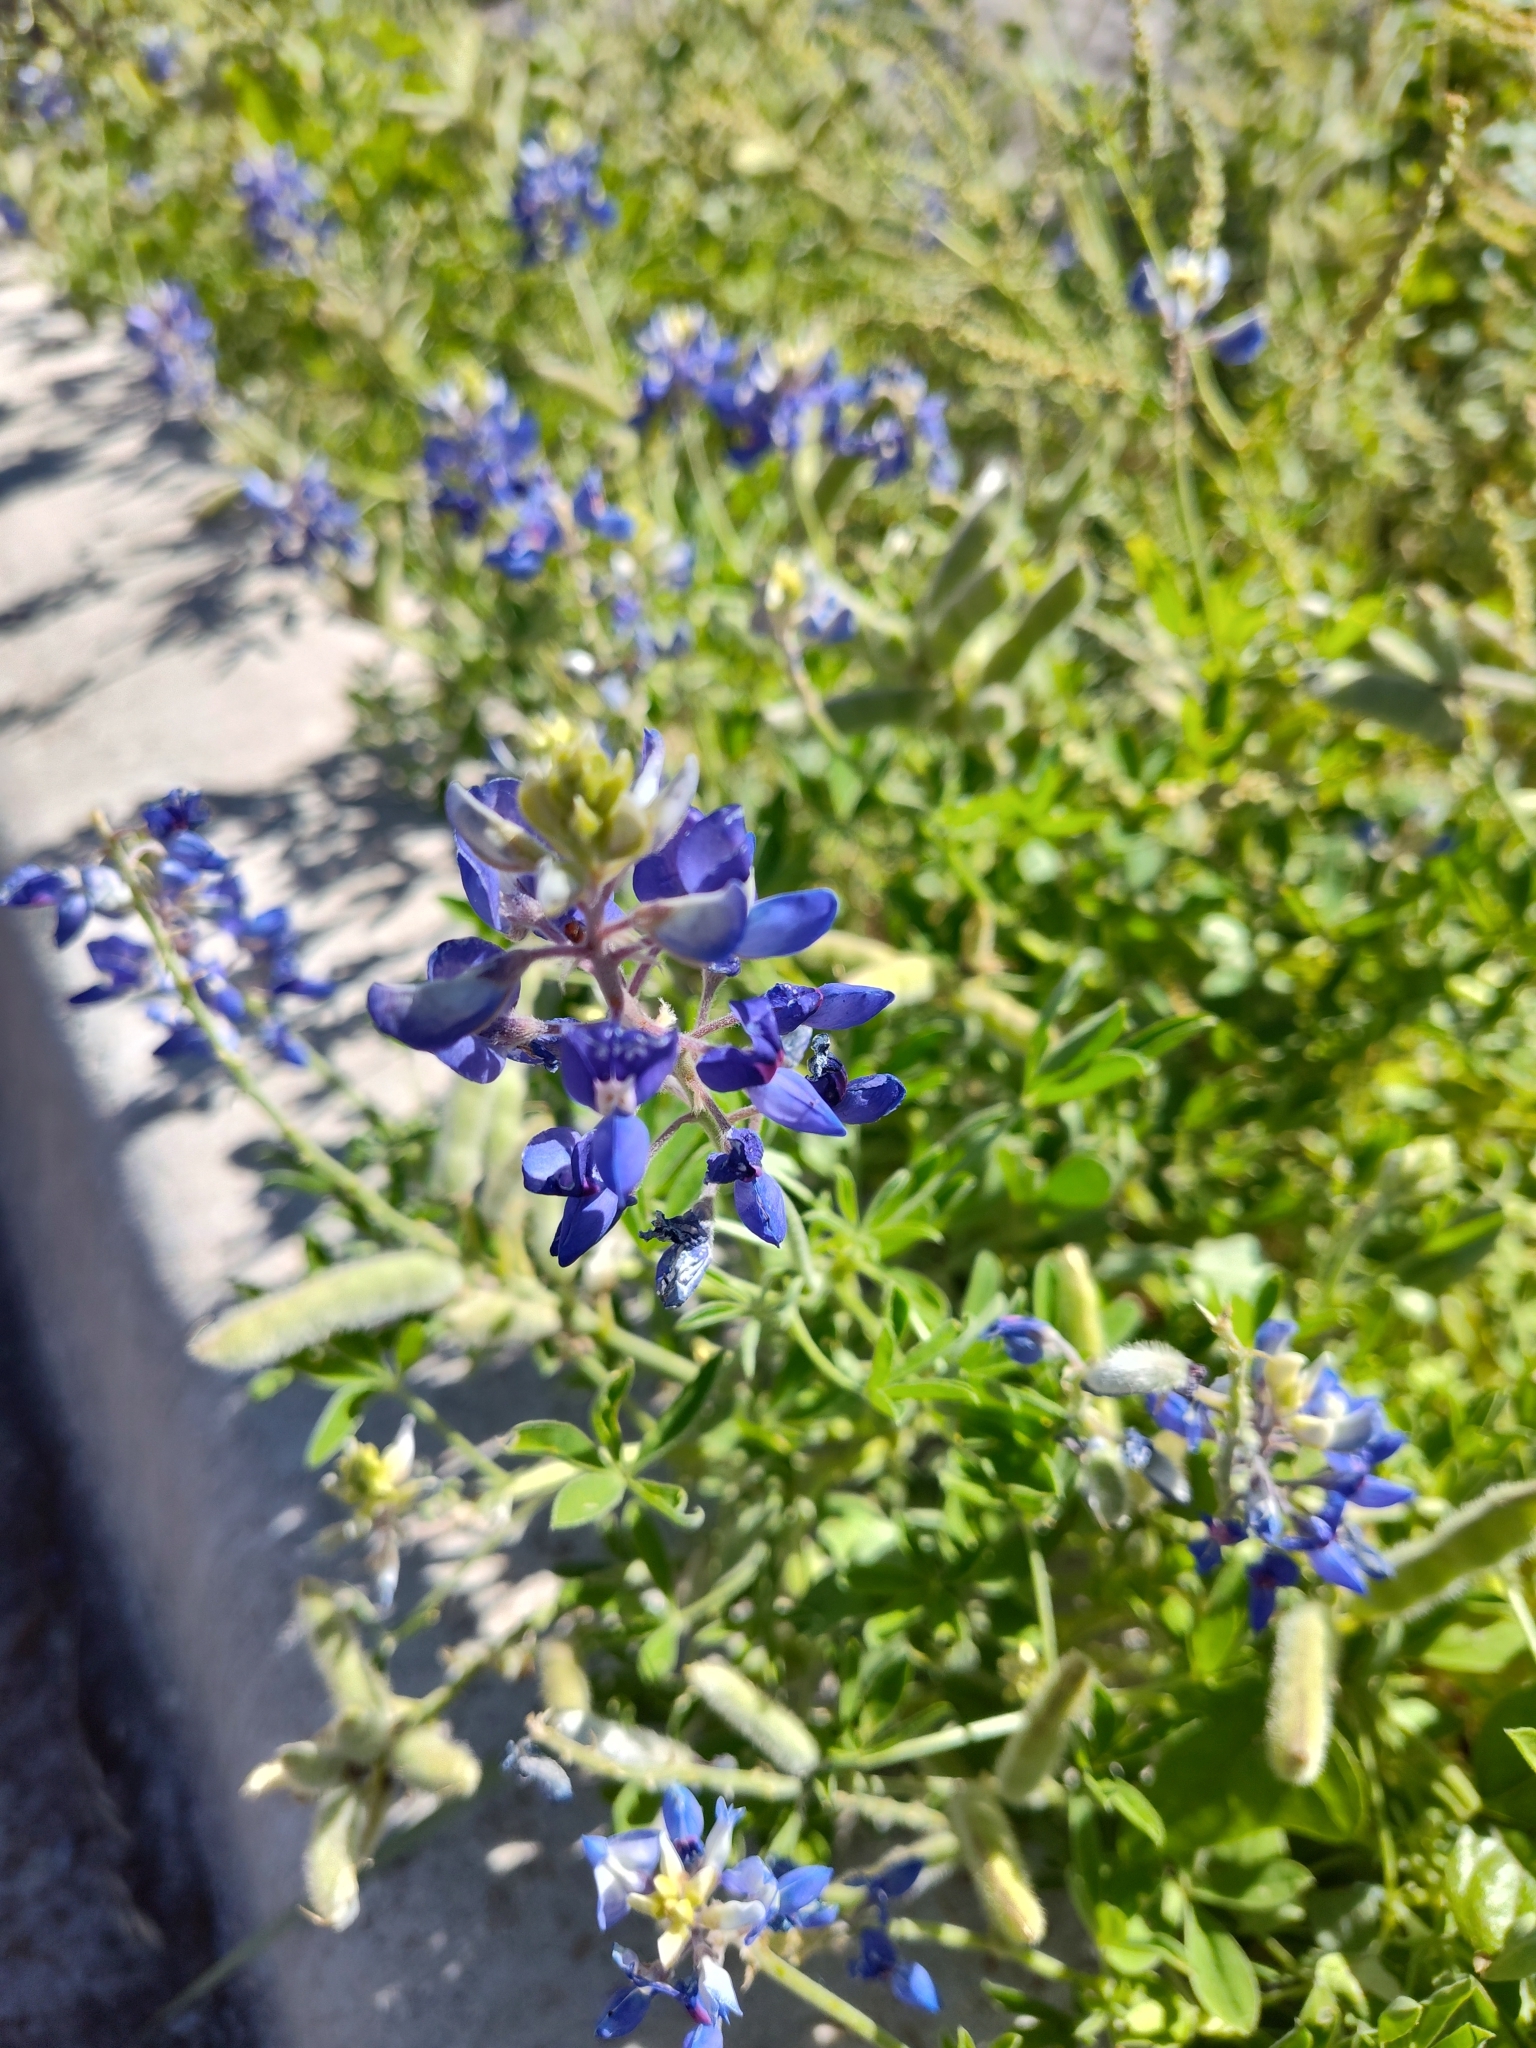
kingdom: Plantae
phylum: Tracheophyta
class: Magnoliopsida
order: Fabales
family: Fabaceae
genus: Lupinus
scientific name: Lupinus texensis
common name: Texas bluebonnet
